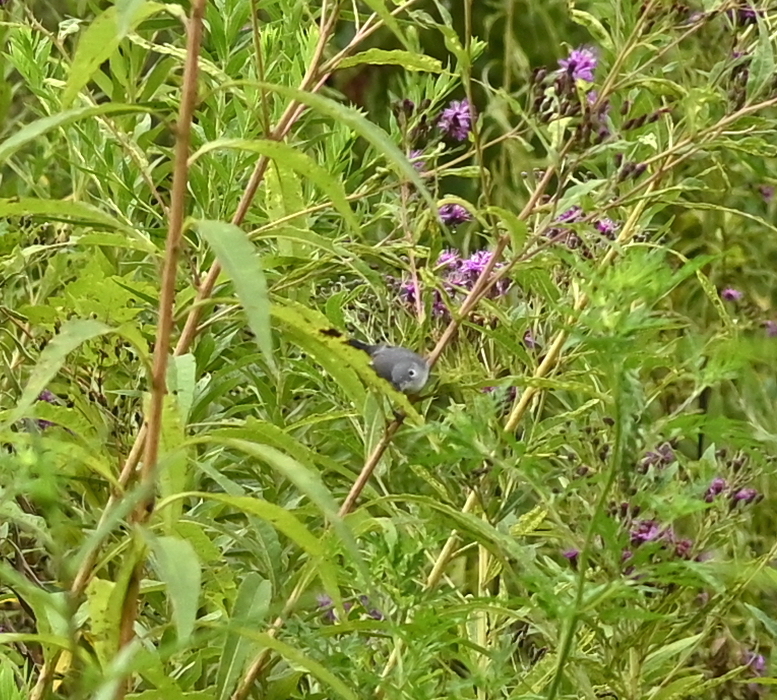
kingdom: Animalia
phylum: Chordata
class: Aves
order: Passeriformes
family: Polioptilidae
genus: Polioptila
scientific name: Polioptila caerulea
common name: Blue-gray gnatcatcher
